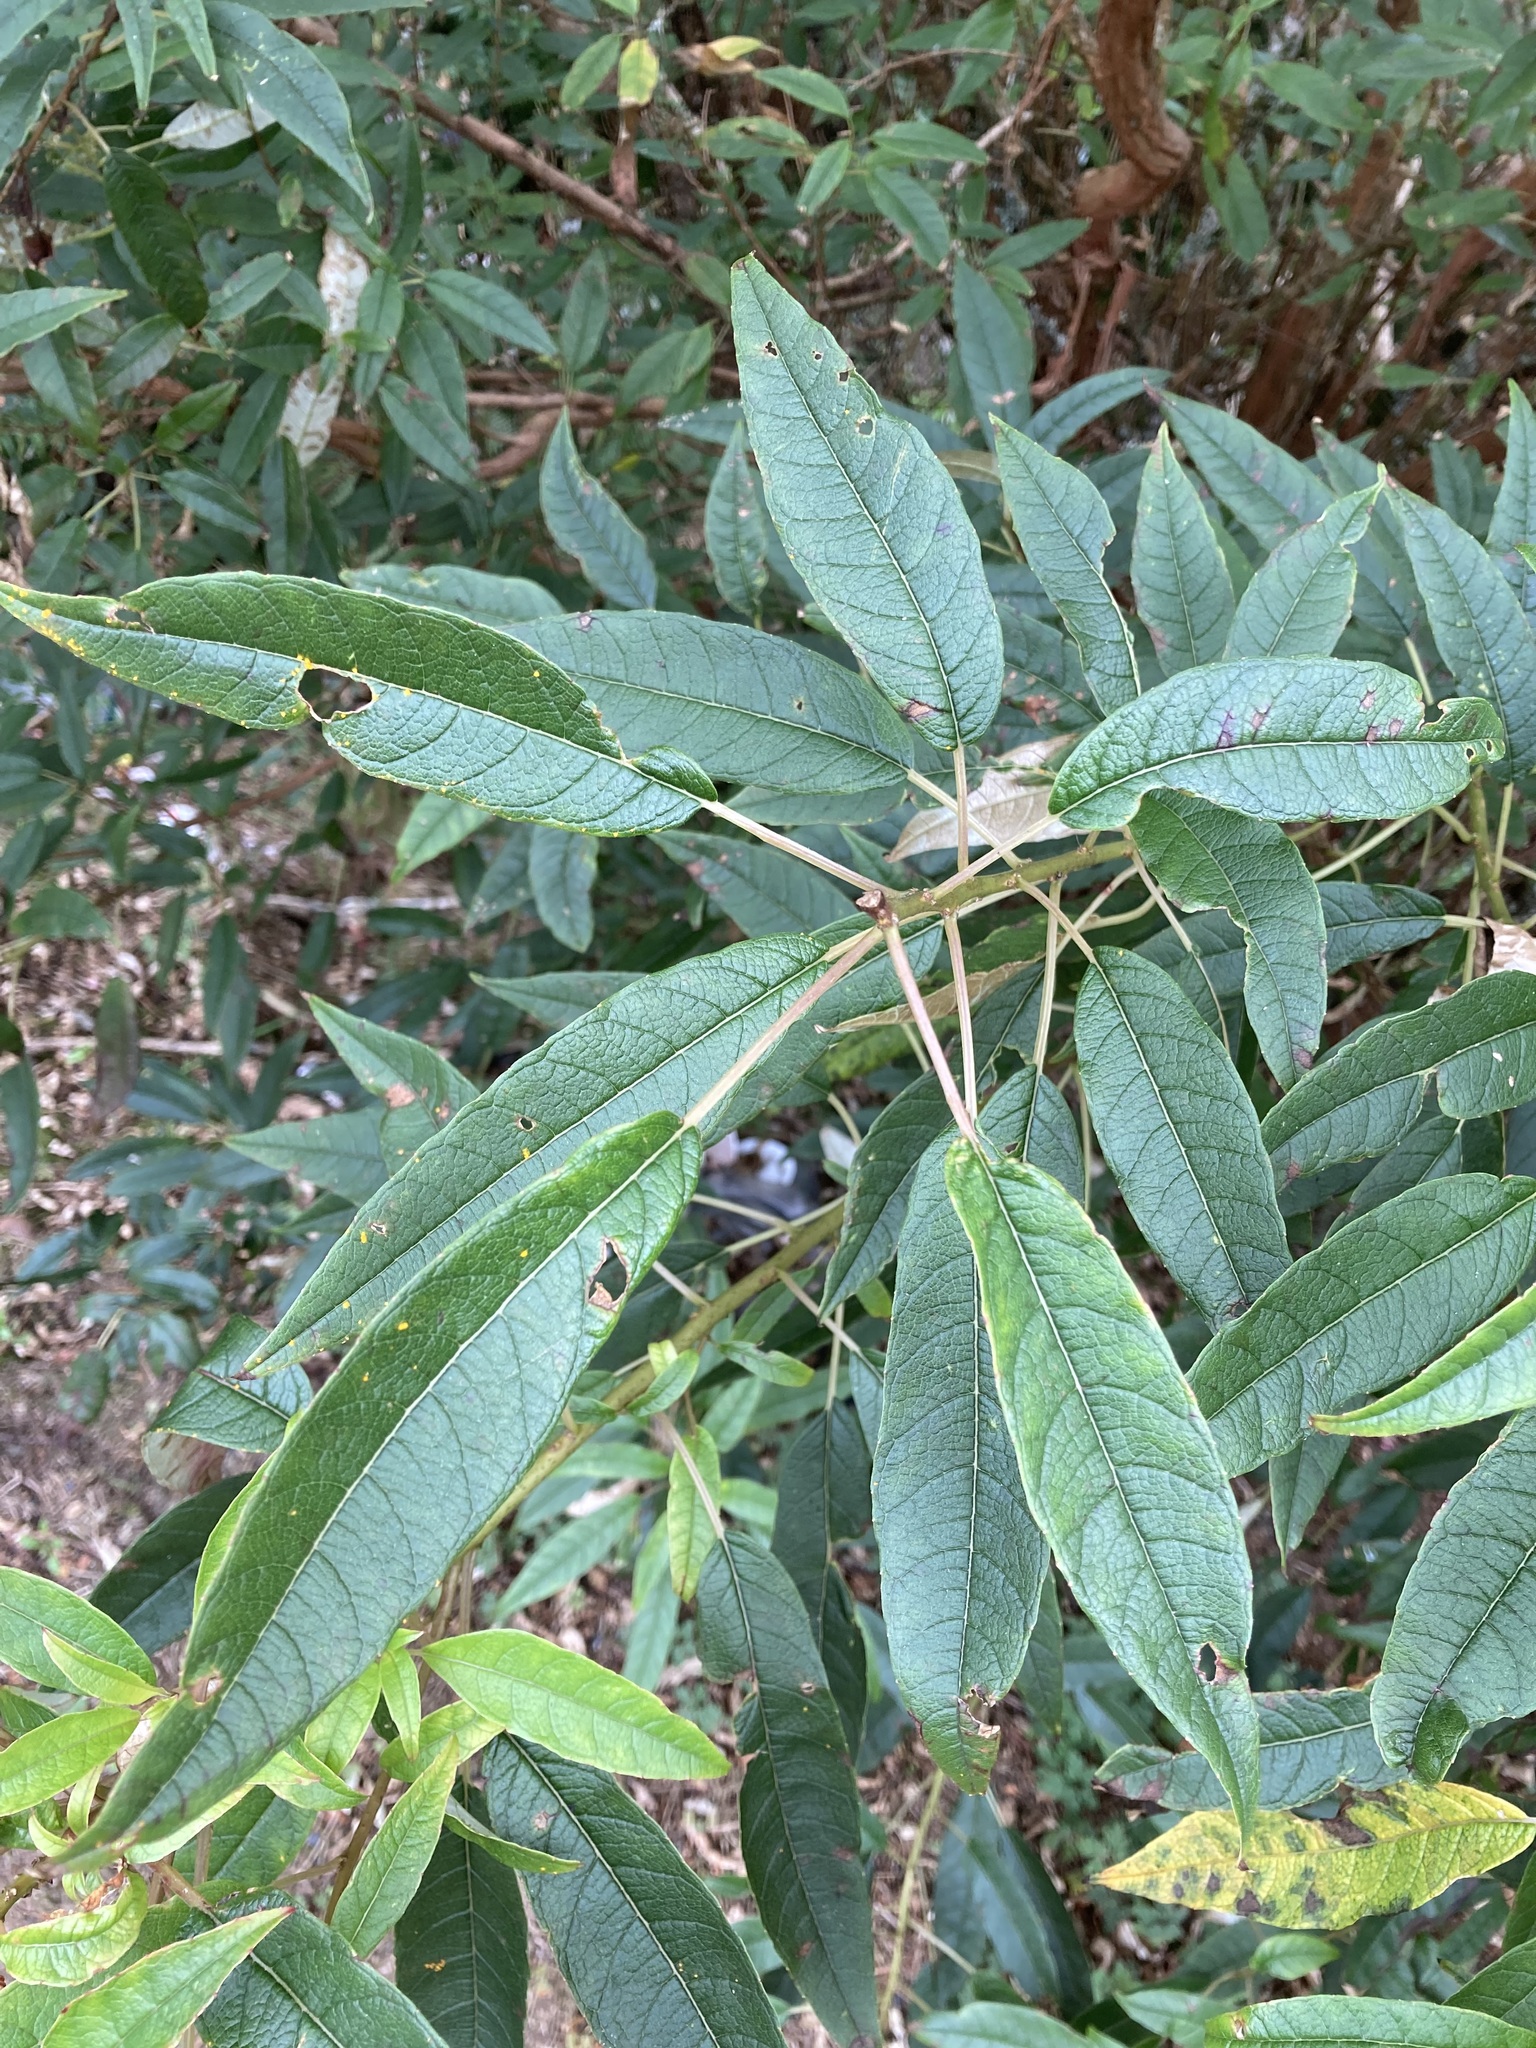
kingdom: Plantae
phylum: Tracheophyta
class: Magnoliopsida
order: Myrtales
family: Onagraceae
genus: Fuchsia
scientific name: Fuchsia excorticata
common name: Tree fuchsia
